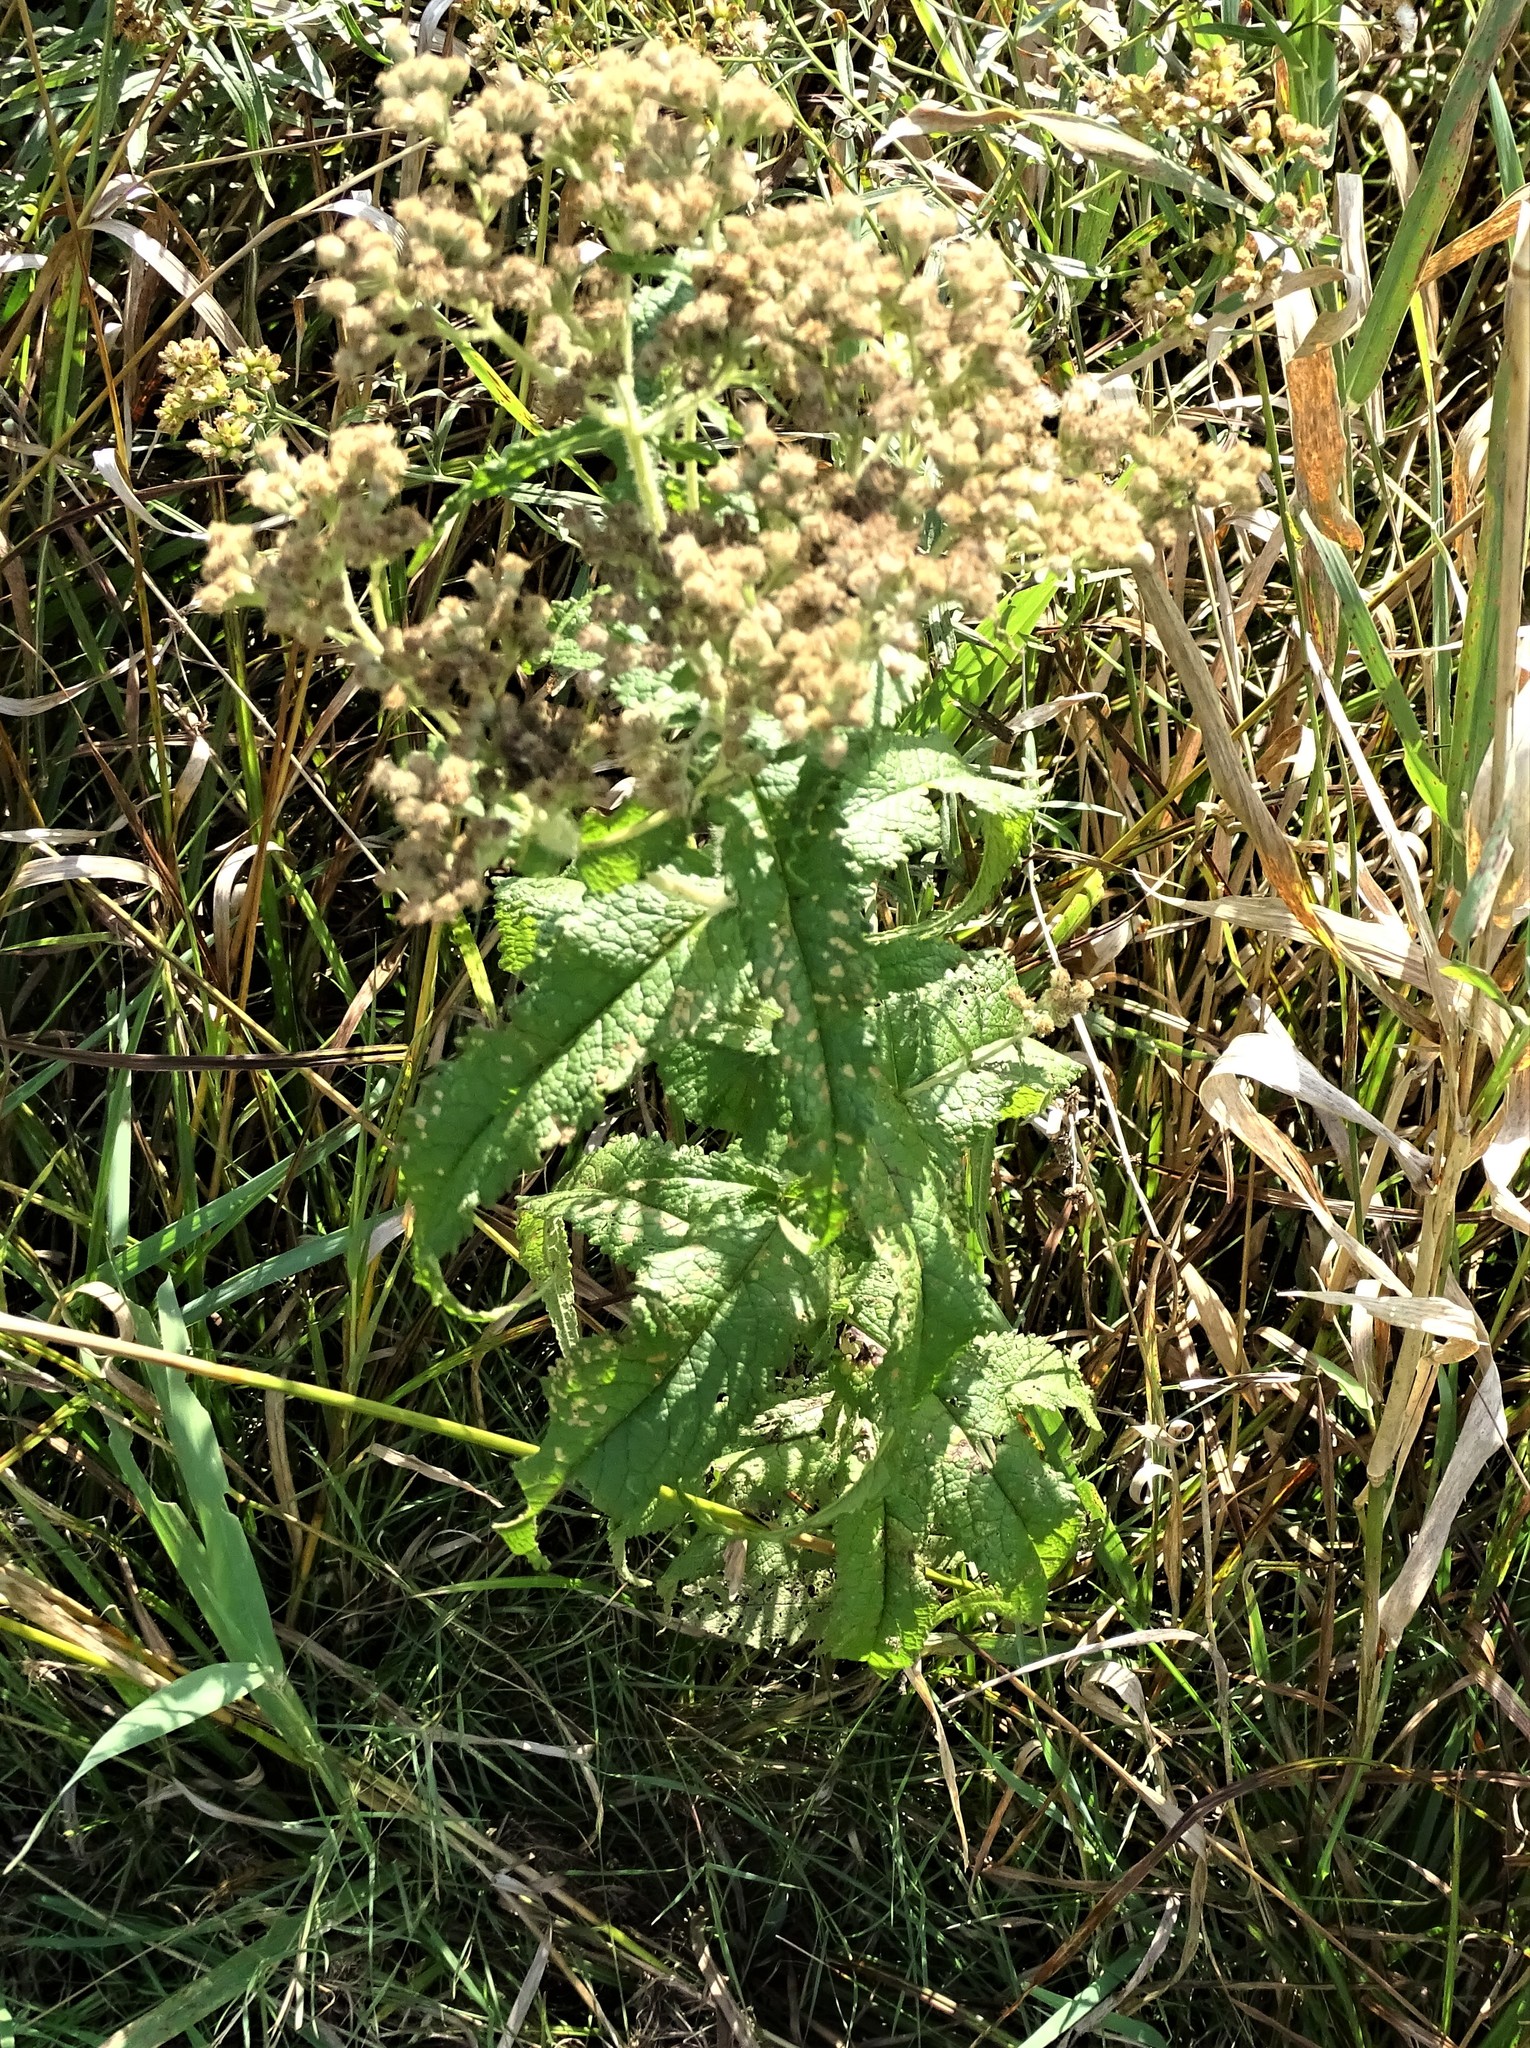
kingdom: Plantae
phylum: Tracheophyta
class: Magnoliopsida
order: Asterales
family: Asteraceae
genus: Eupatorium
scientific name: Eupatorium perfoliatum
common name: Boneset
